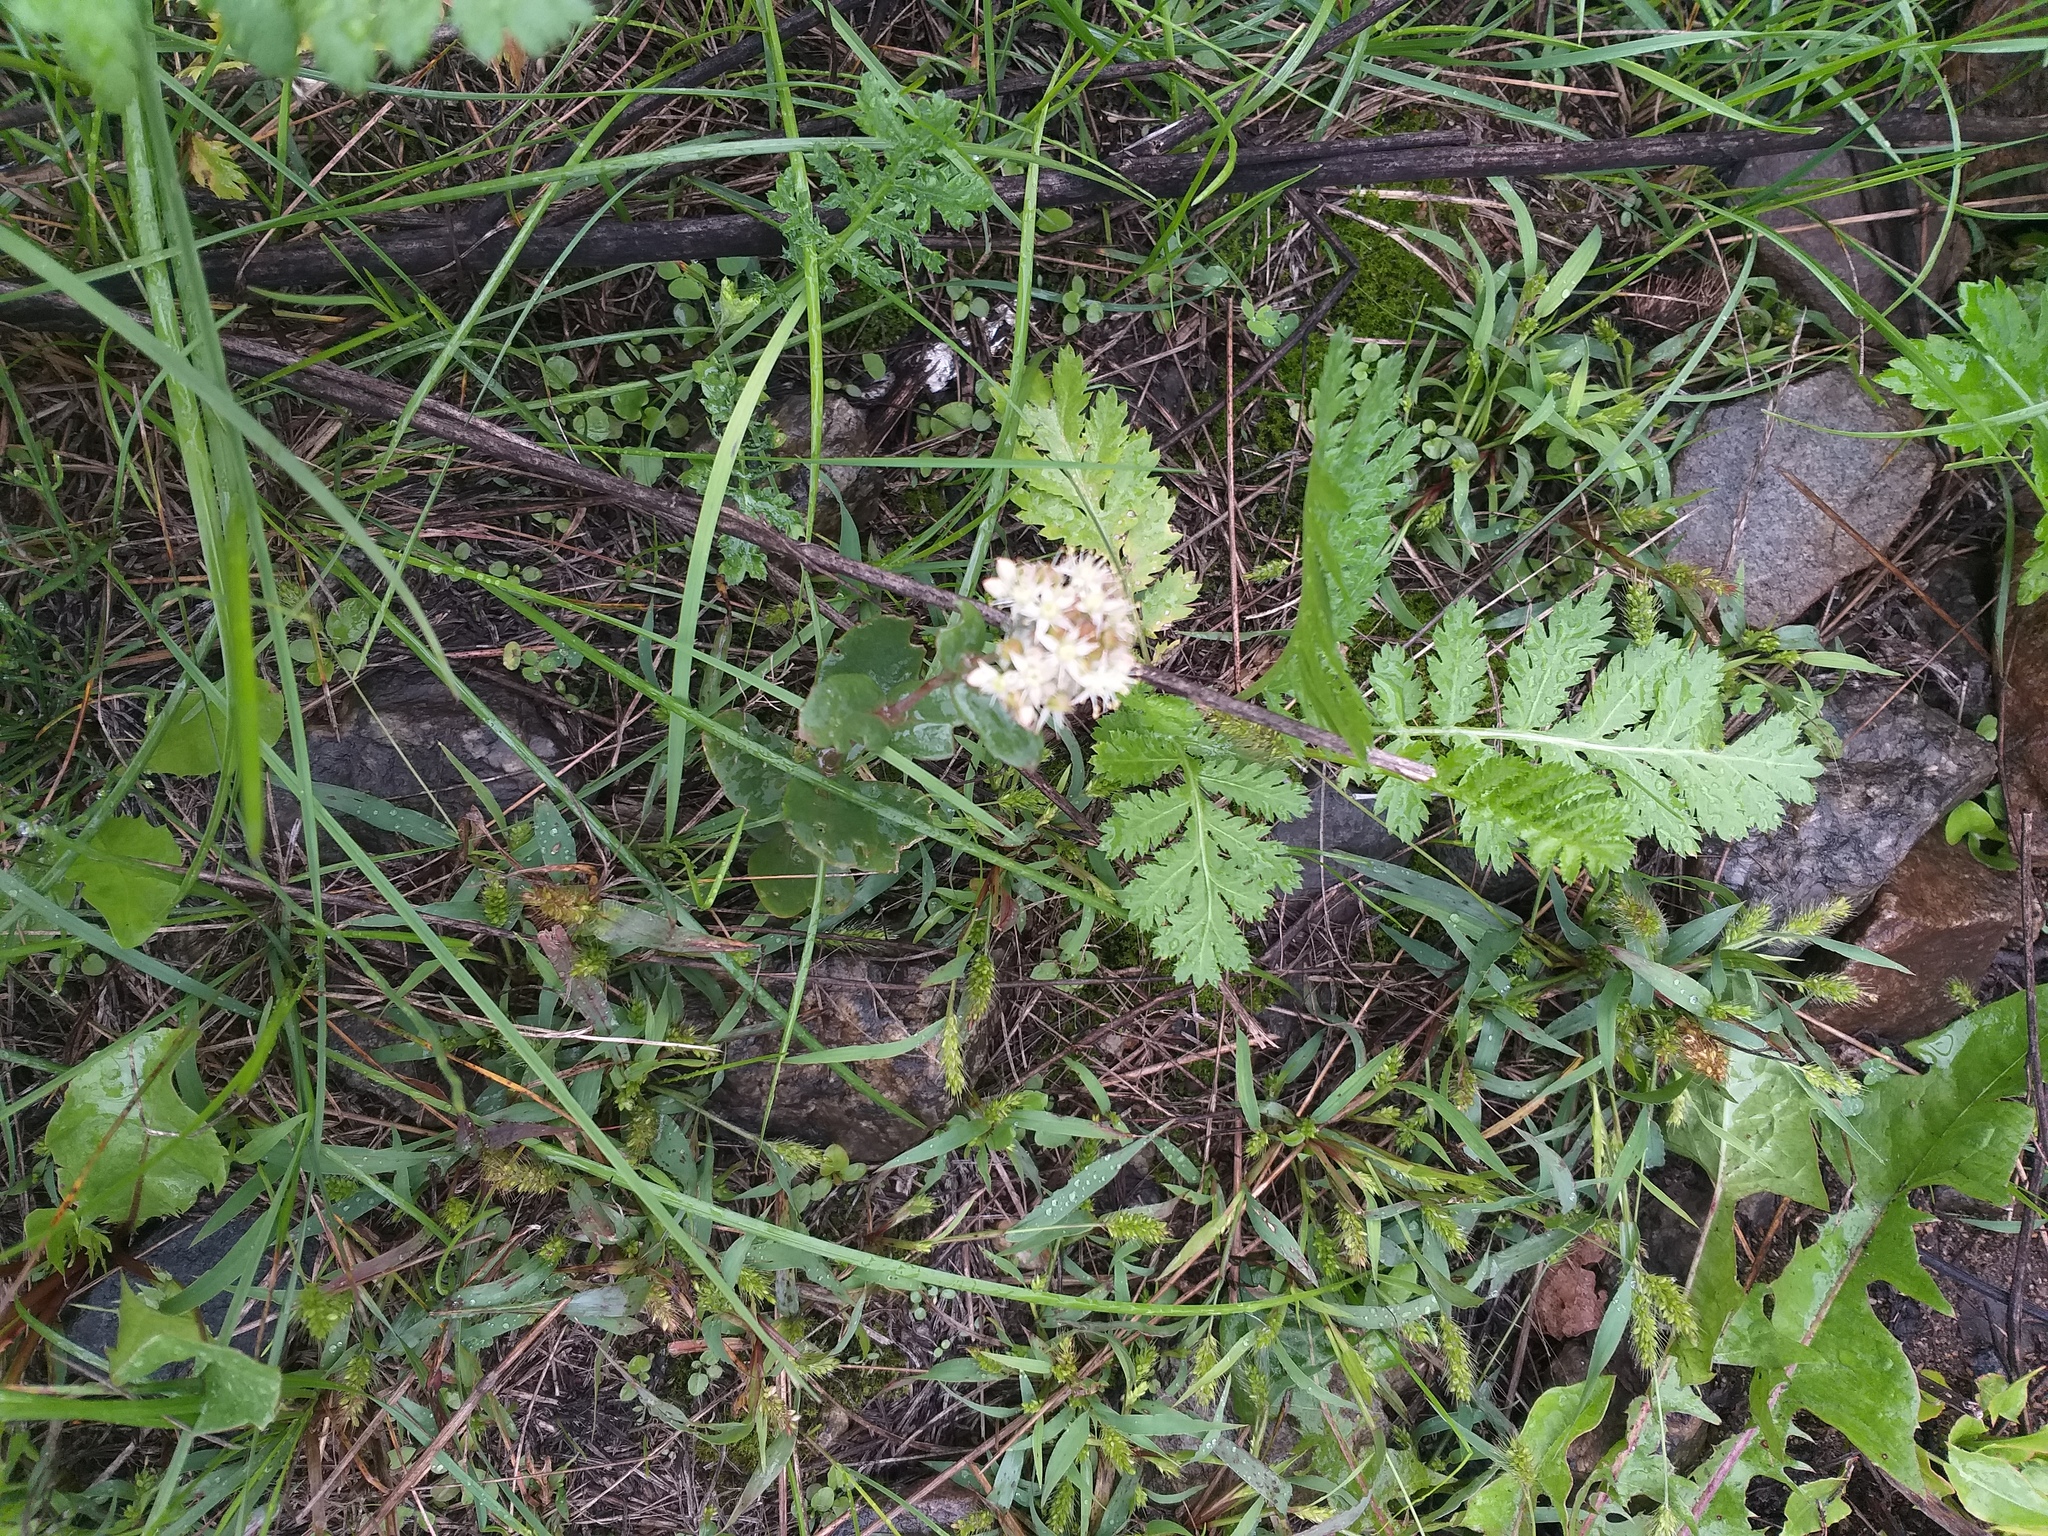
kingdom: Plantae
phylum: Tracheophyta
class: Magnoliopsida
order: Saxifragales
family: Crassulaceae
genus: Hylotelephium
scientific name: Hylotelephium maximum
